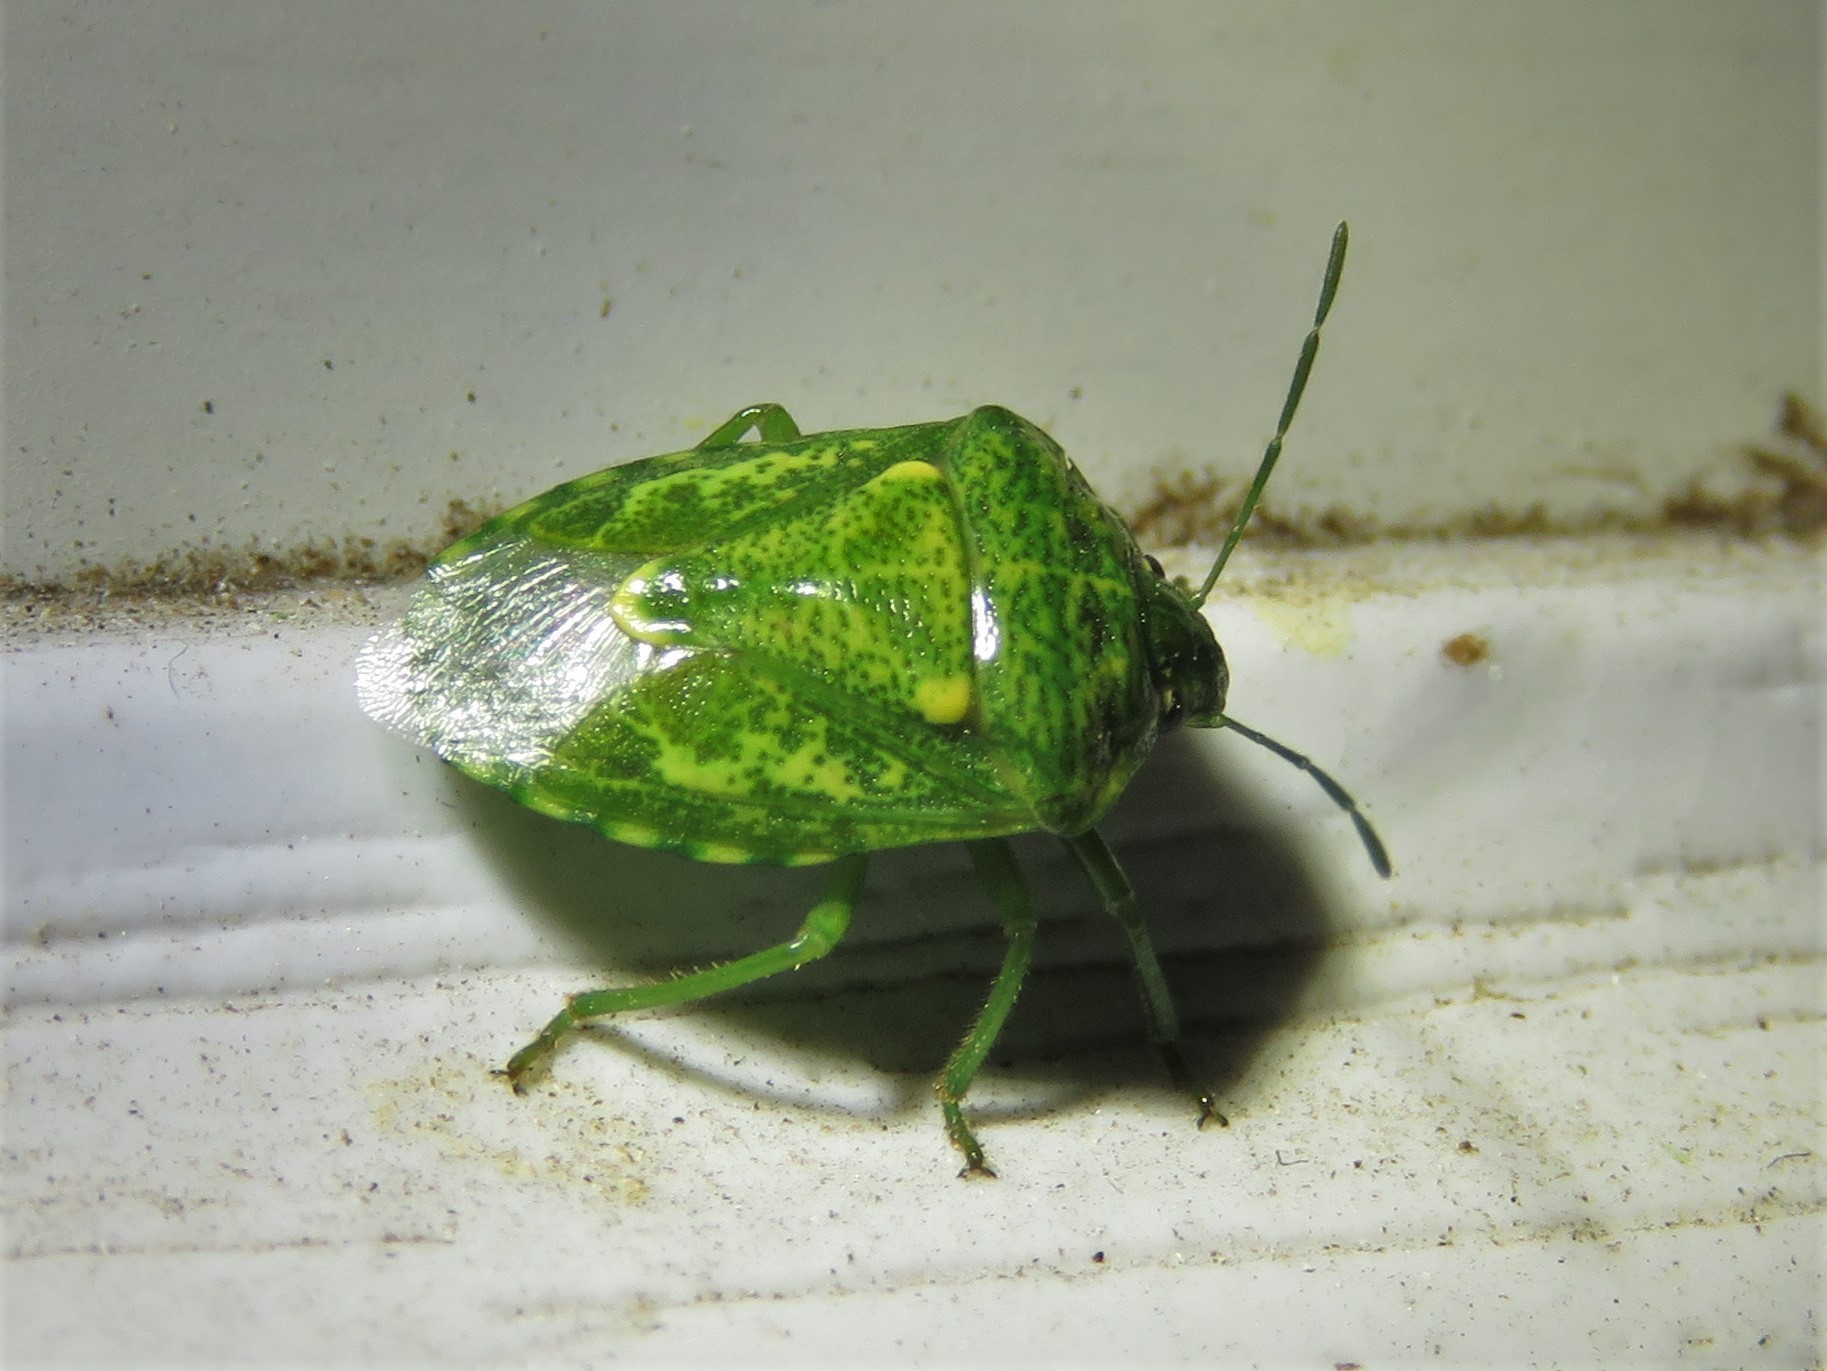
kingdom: Animalia
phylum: Arthropoda
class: Insecta
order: Hemiptera
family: Pentatomidae
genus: Banasa
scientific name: Banasa euchlora
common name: Cedar berry bug
